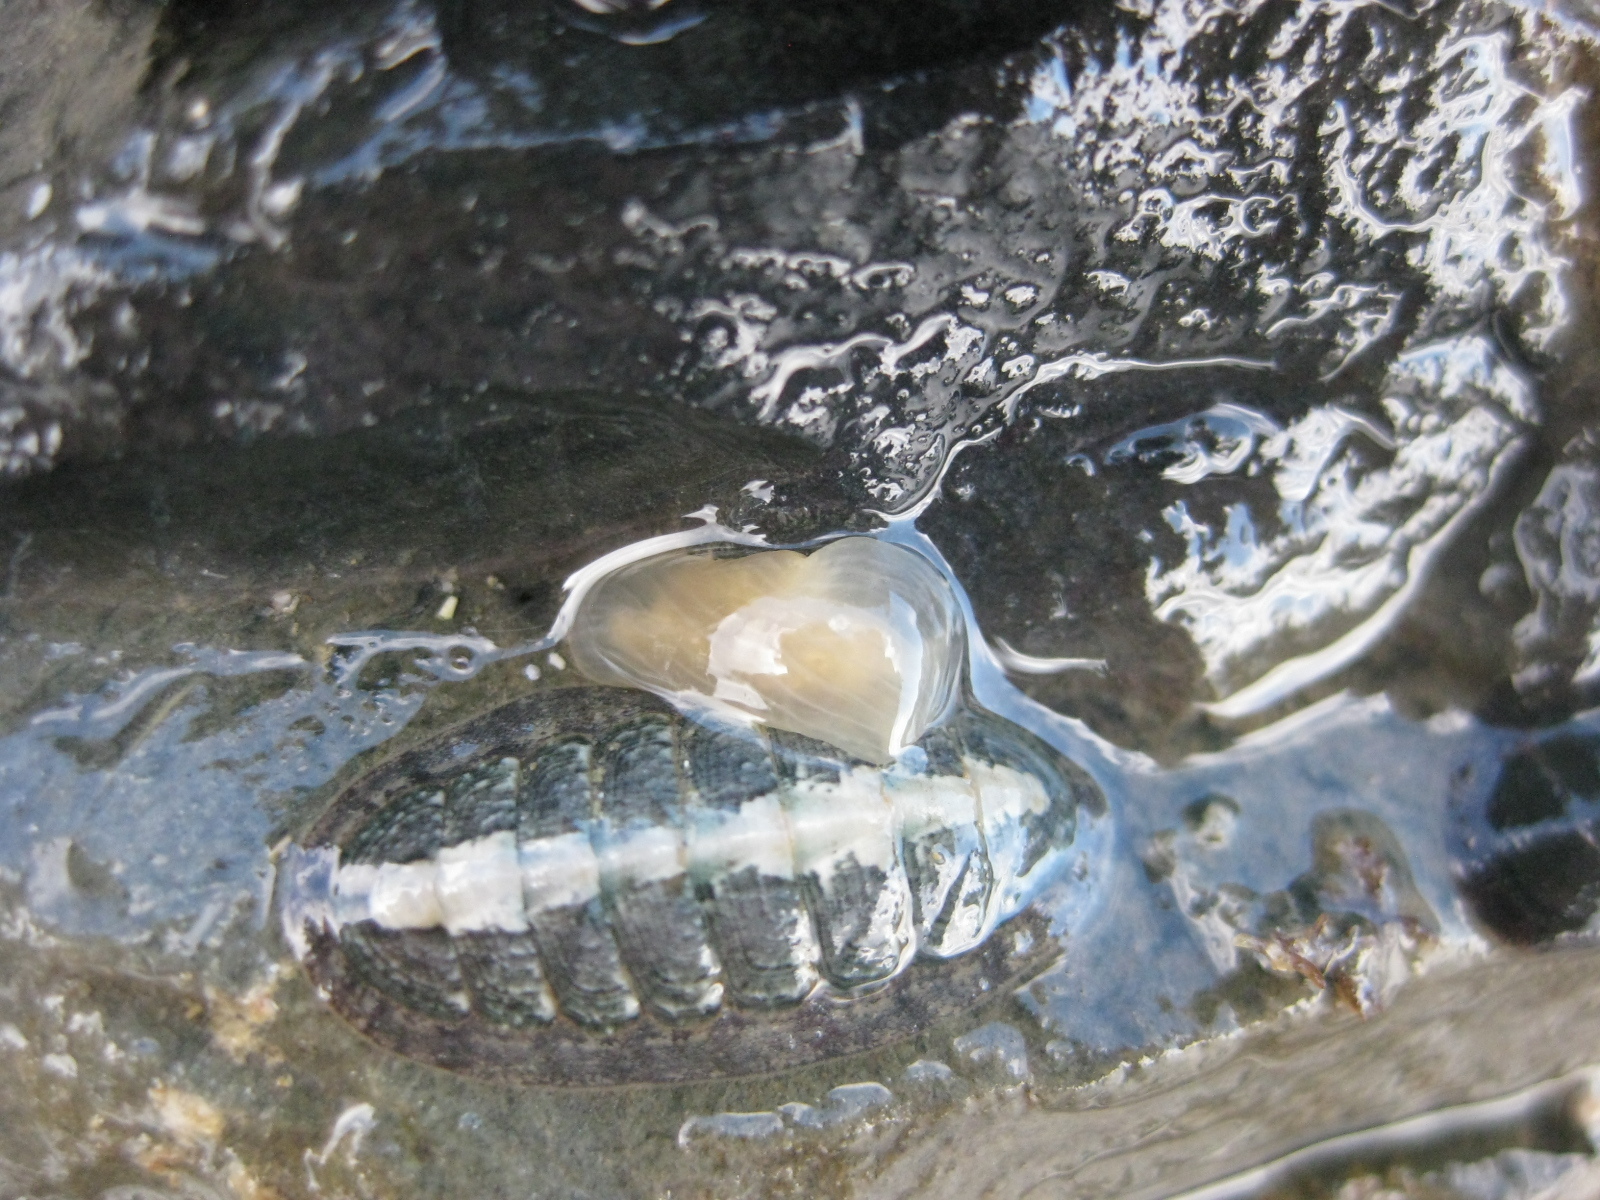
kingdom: Animalia
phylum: Mollusca
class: Polyplacophora
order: Chitonida
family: Ischnochitonidae
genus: Ischnochiton
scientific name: Ischnochiton maorianus
